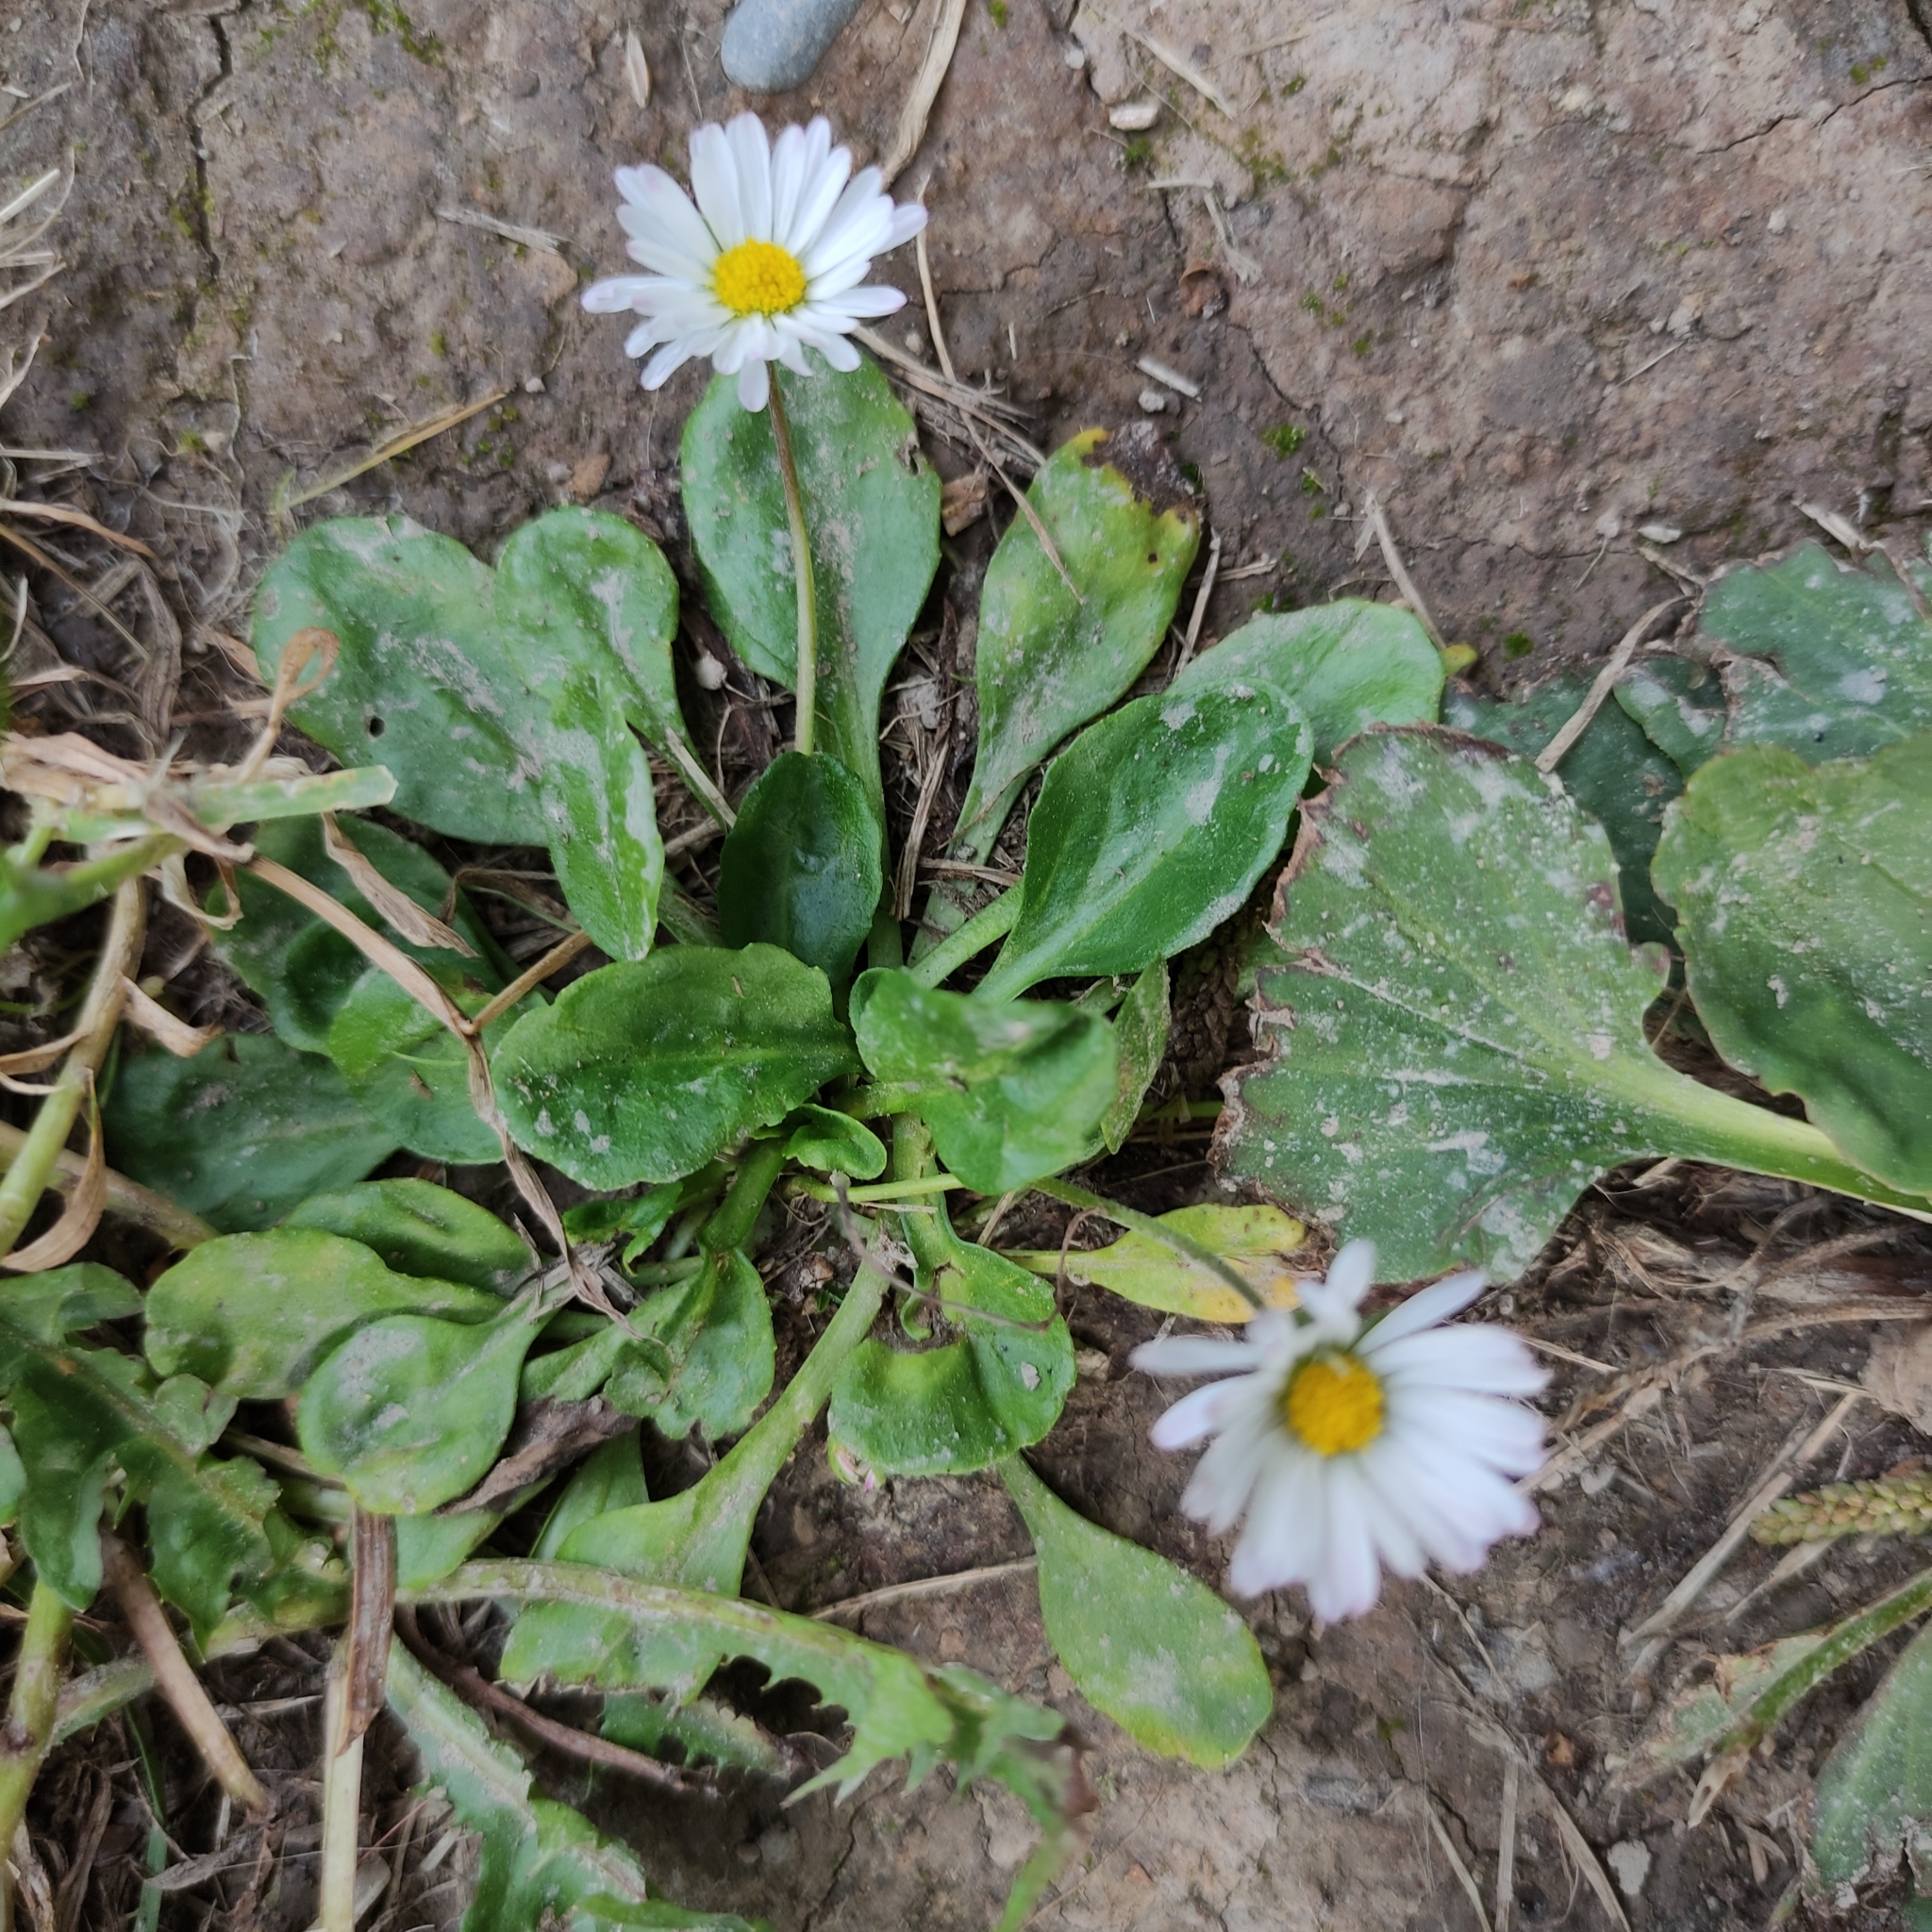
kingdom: Plantae
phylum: Tracheophyta
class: Magnoliopsida
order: Asterales
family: Asteraceae
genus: Bellis
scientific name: Bellis perennis
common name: Lawndaisy
